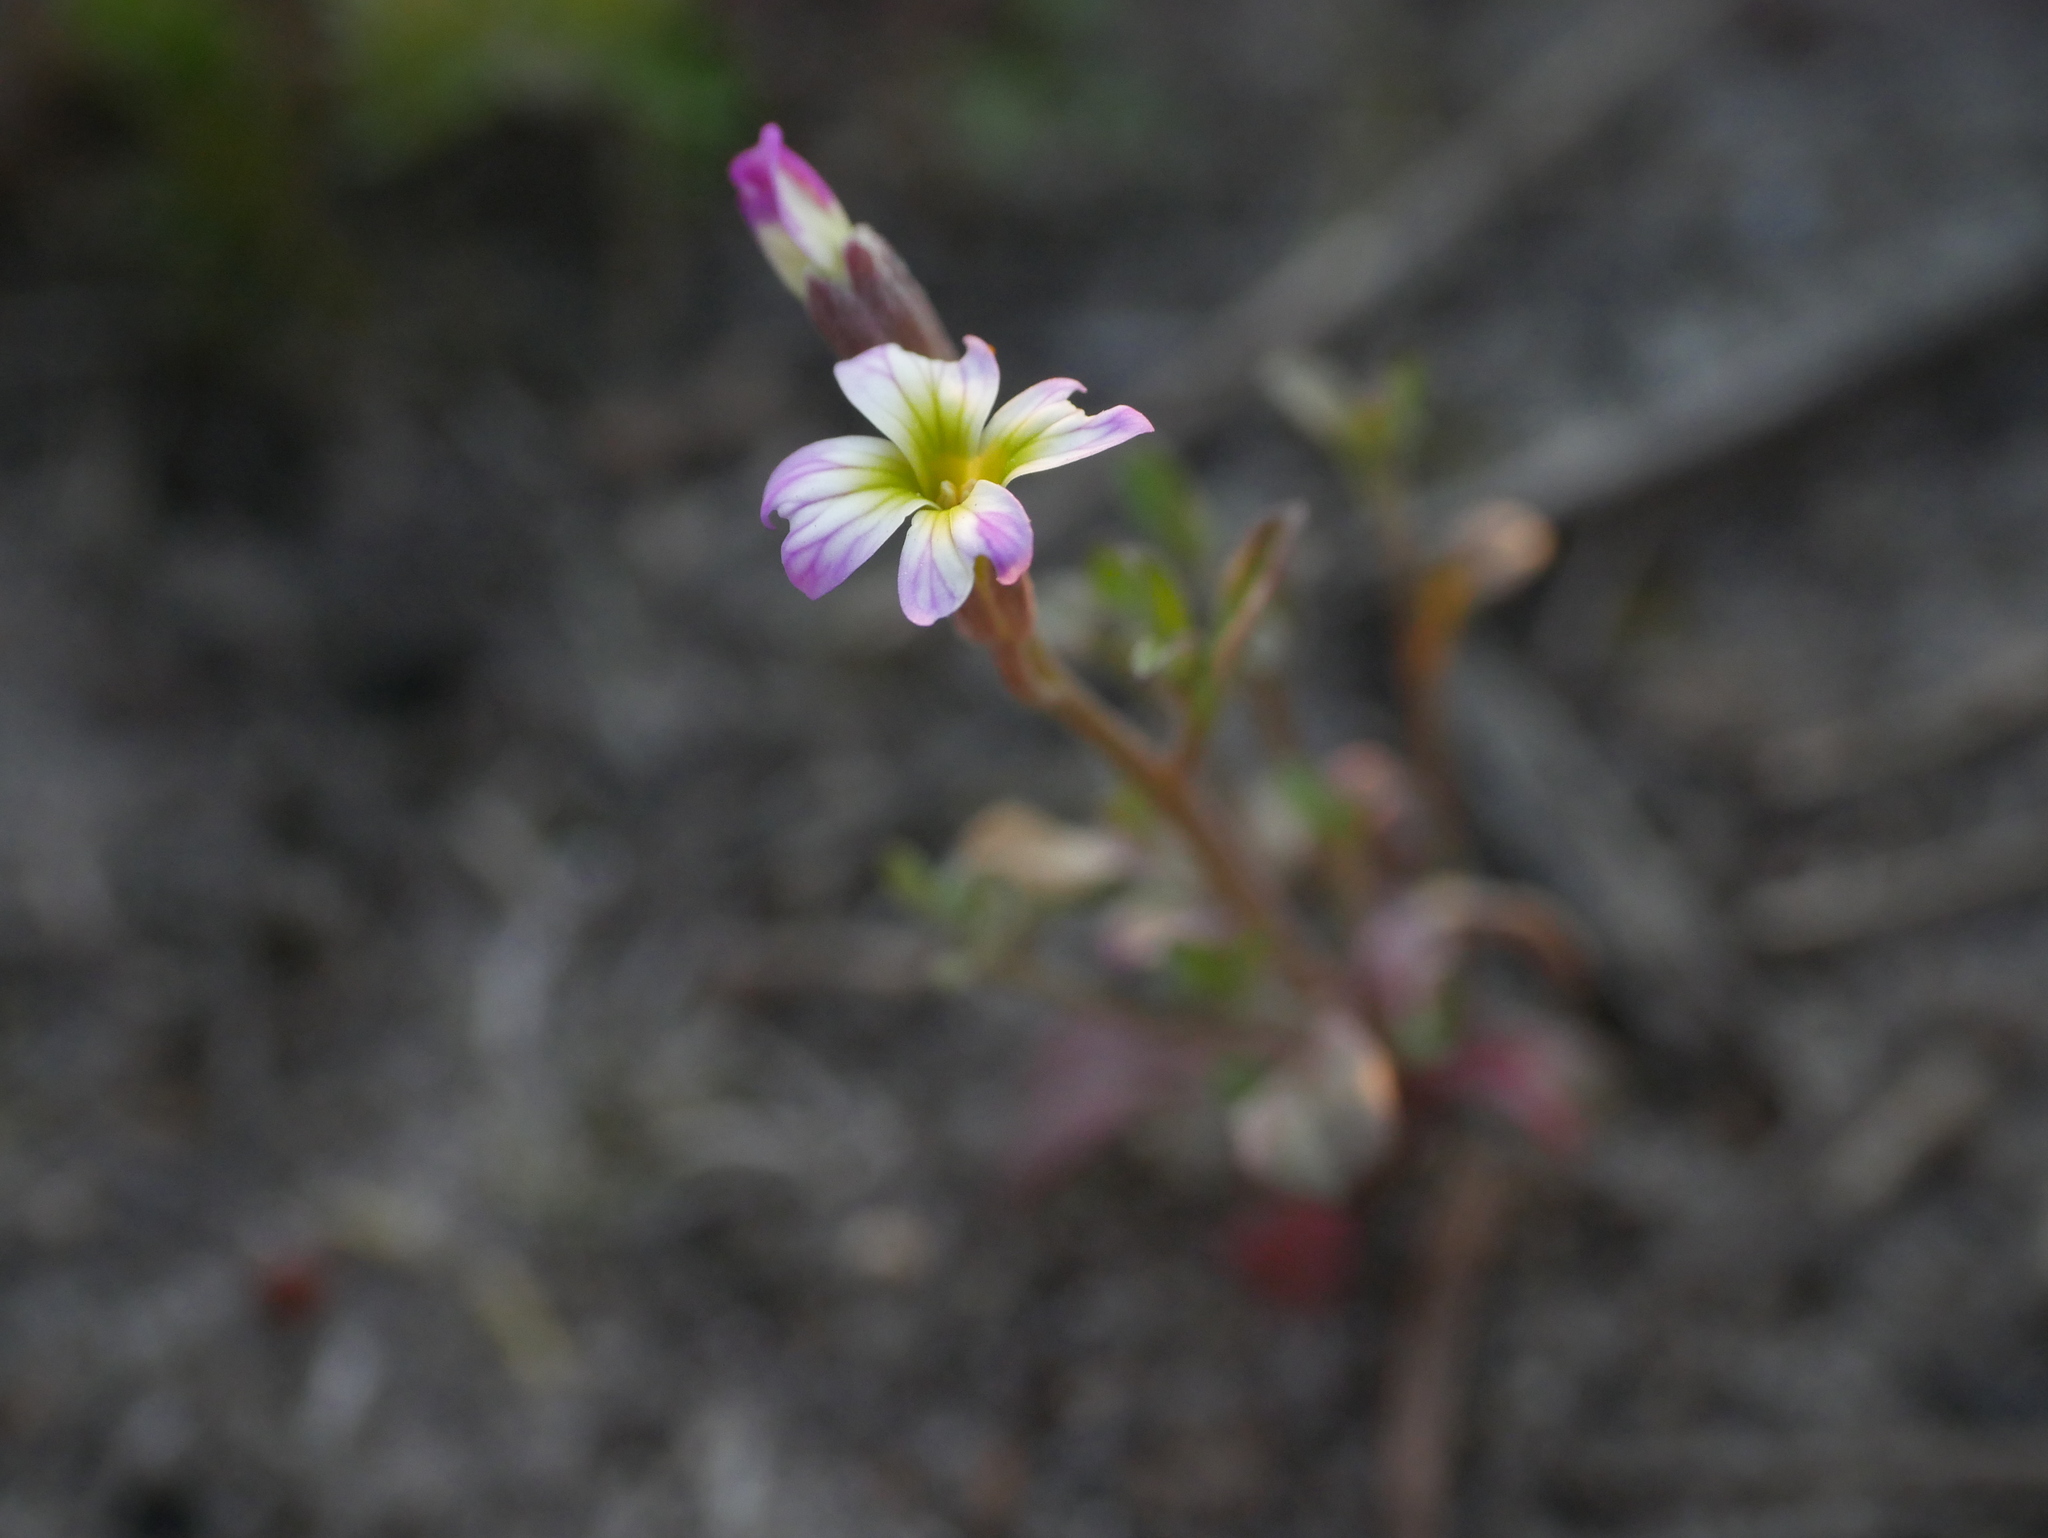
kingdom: Plantae
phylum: Tracheophyta
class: Magnoliopsida
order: Brassicales
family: Brassicaceae
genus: Malcolmia
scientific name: Malcolmia maritima
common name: Virginia stock
